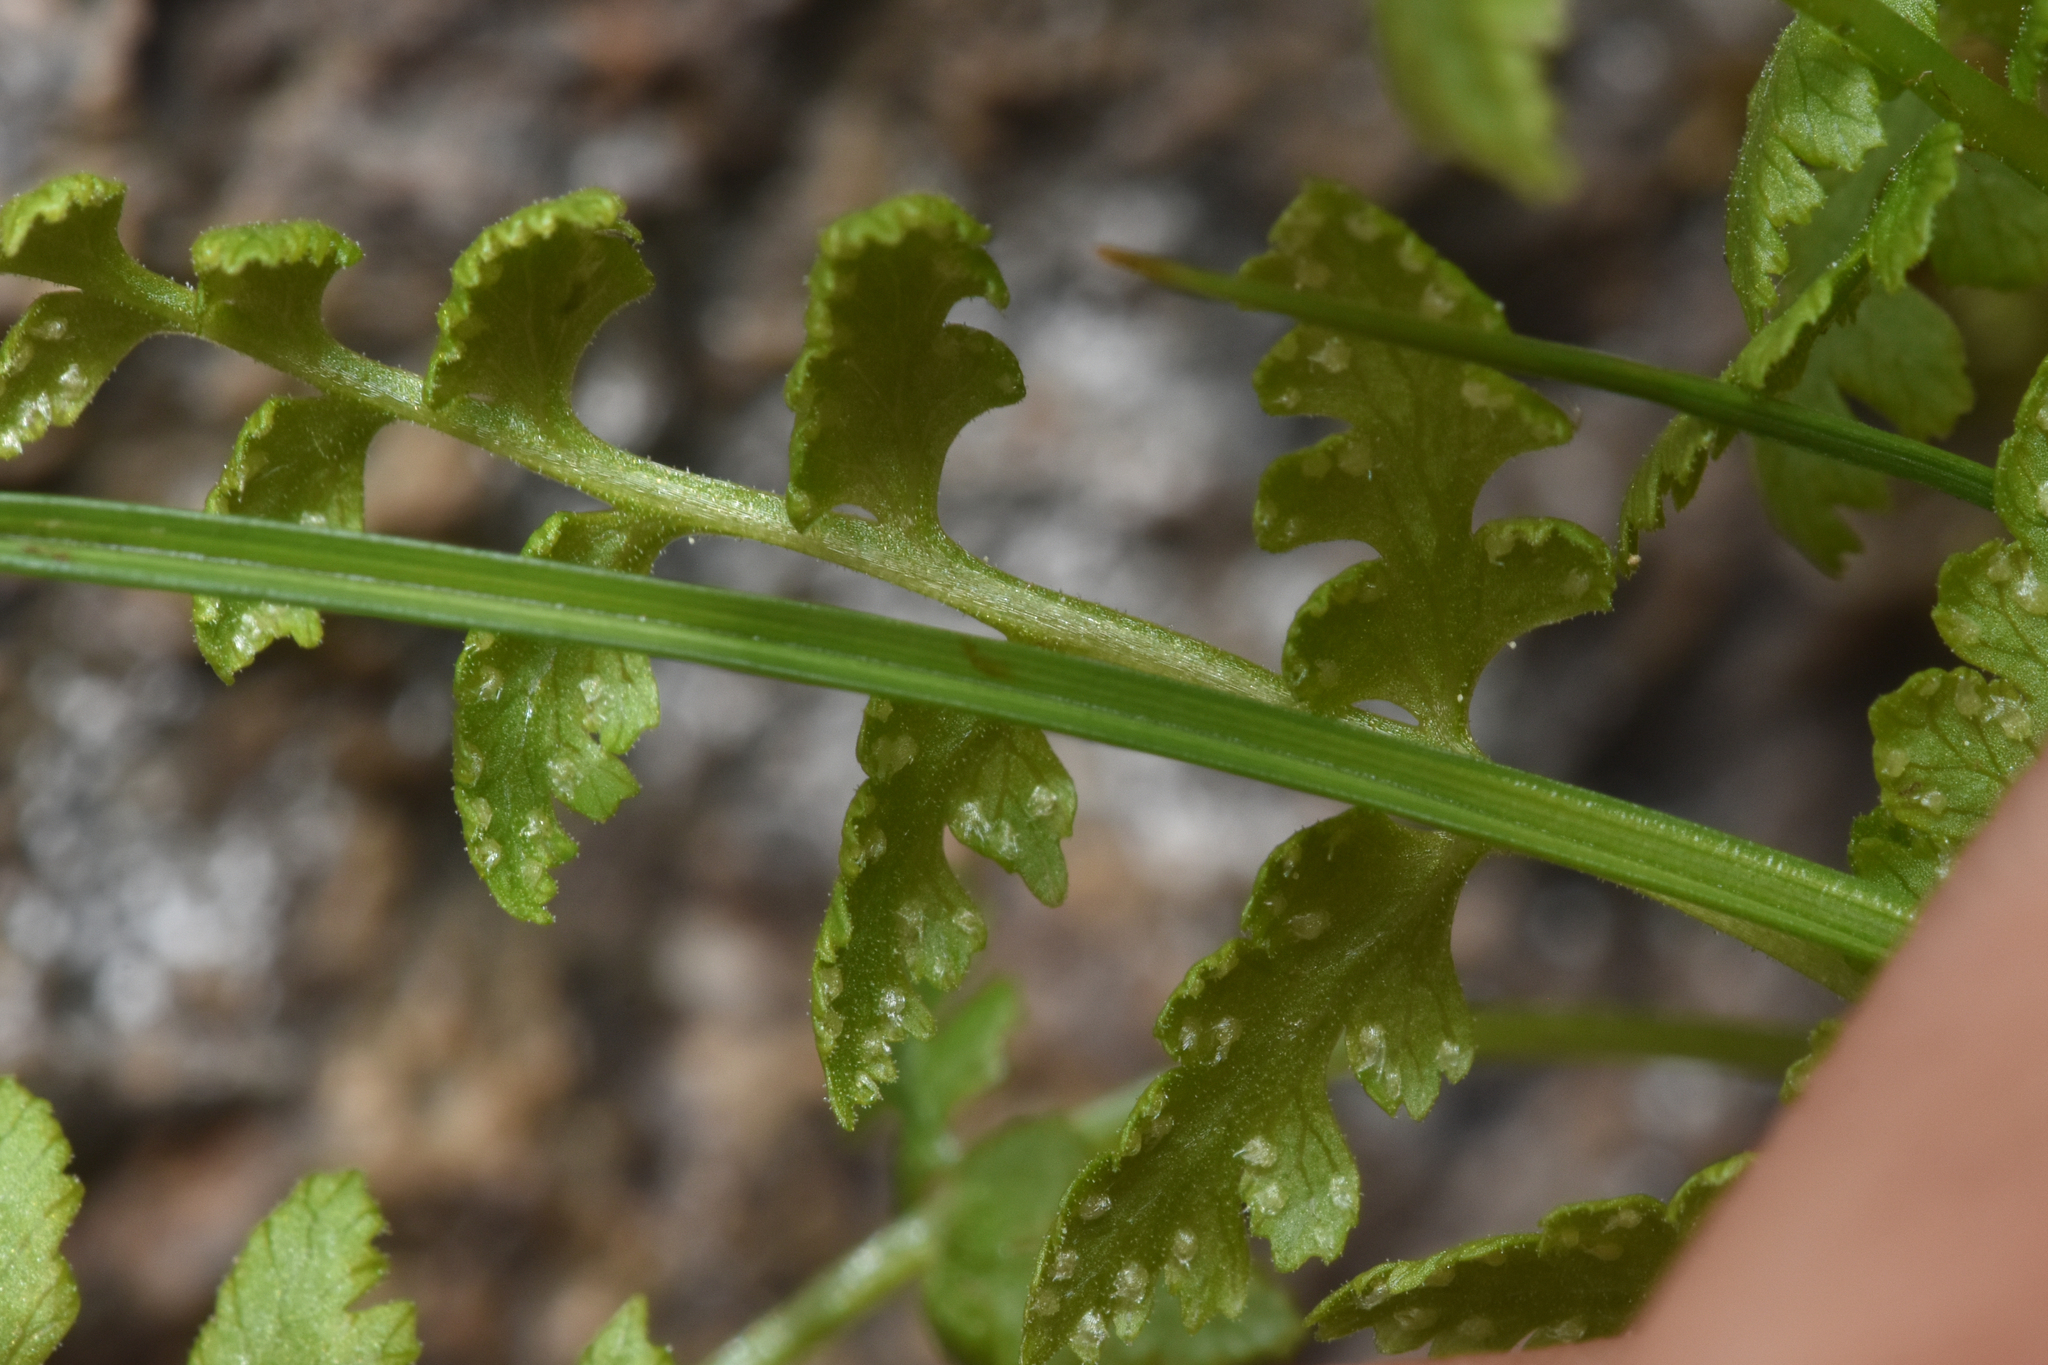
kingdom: Plantae
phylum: Tracheophyta
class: Polypodiopsida
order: Polypodiales
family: Cystopteridaceae
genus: Cystopteris
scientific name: Cystopteris fragilis
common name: Brittle bladder fern
